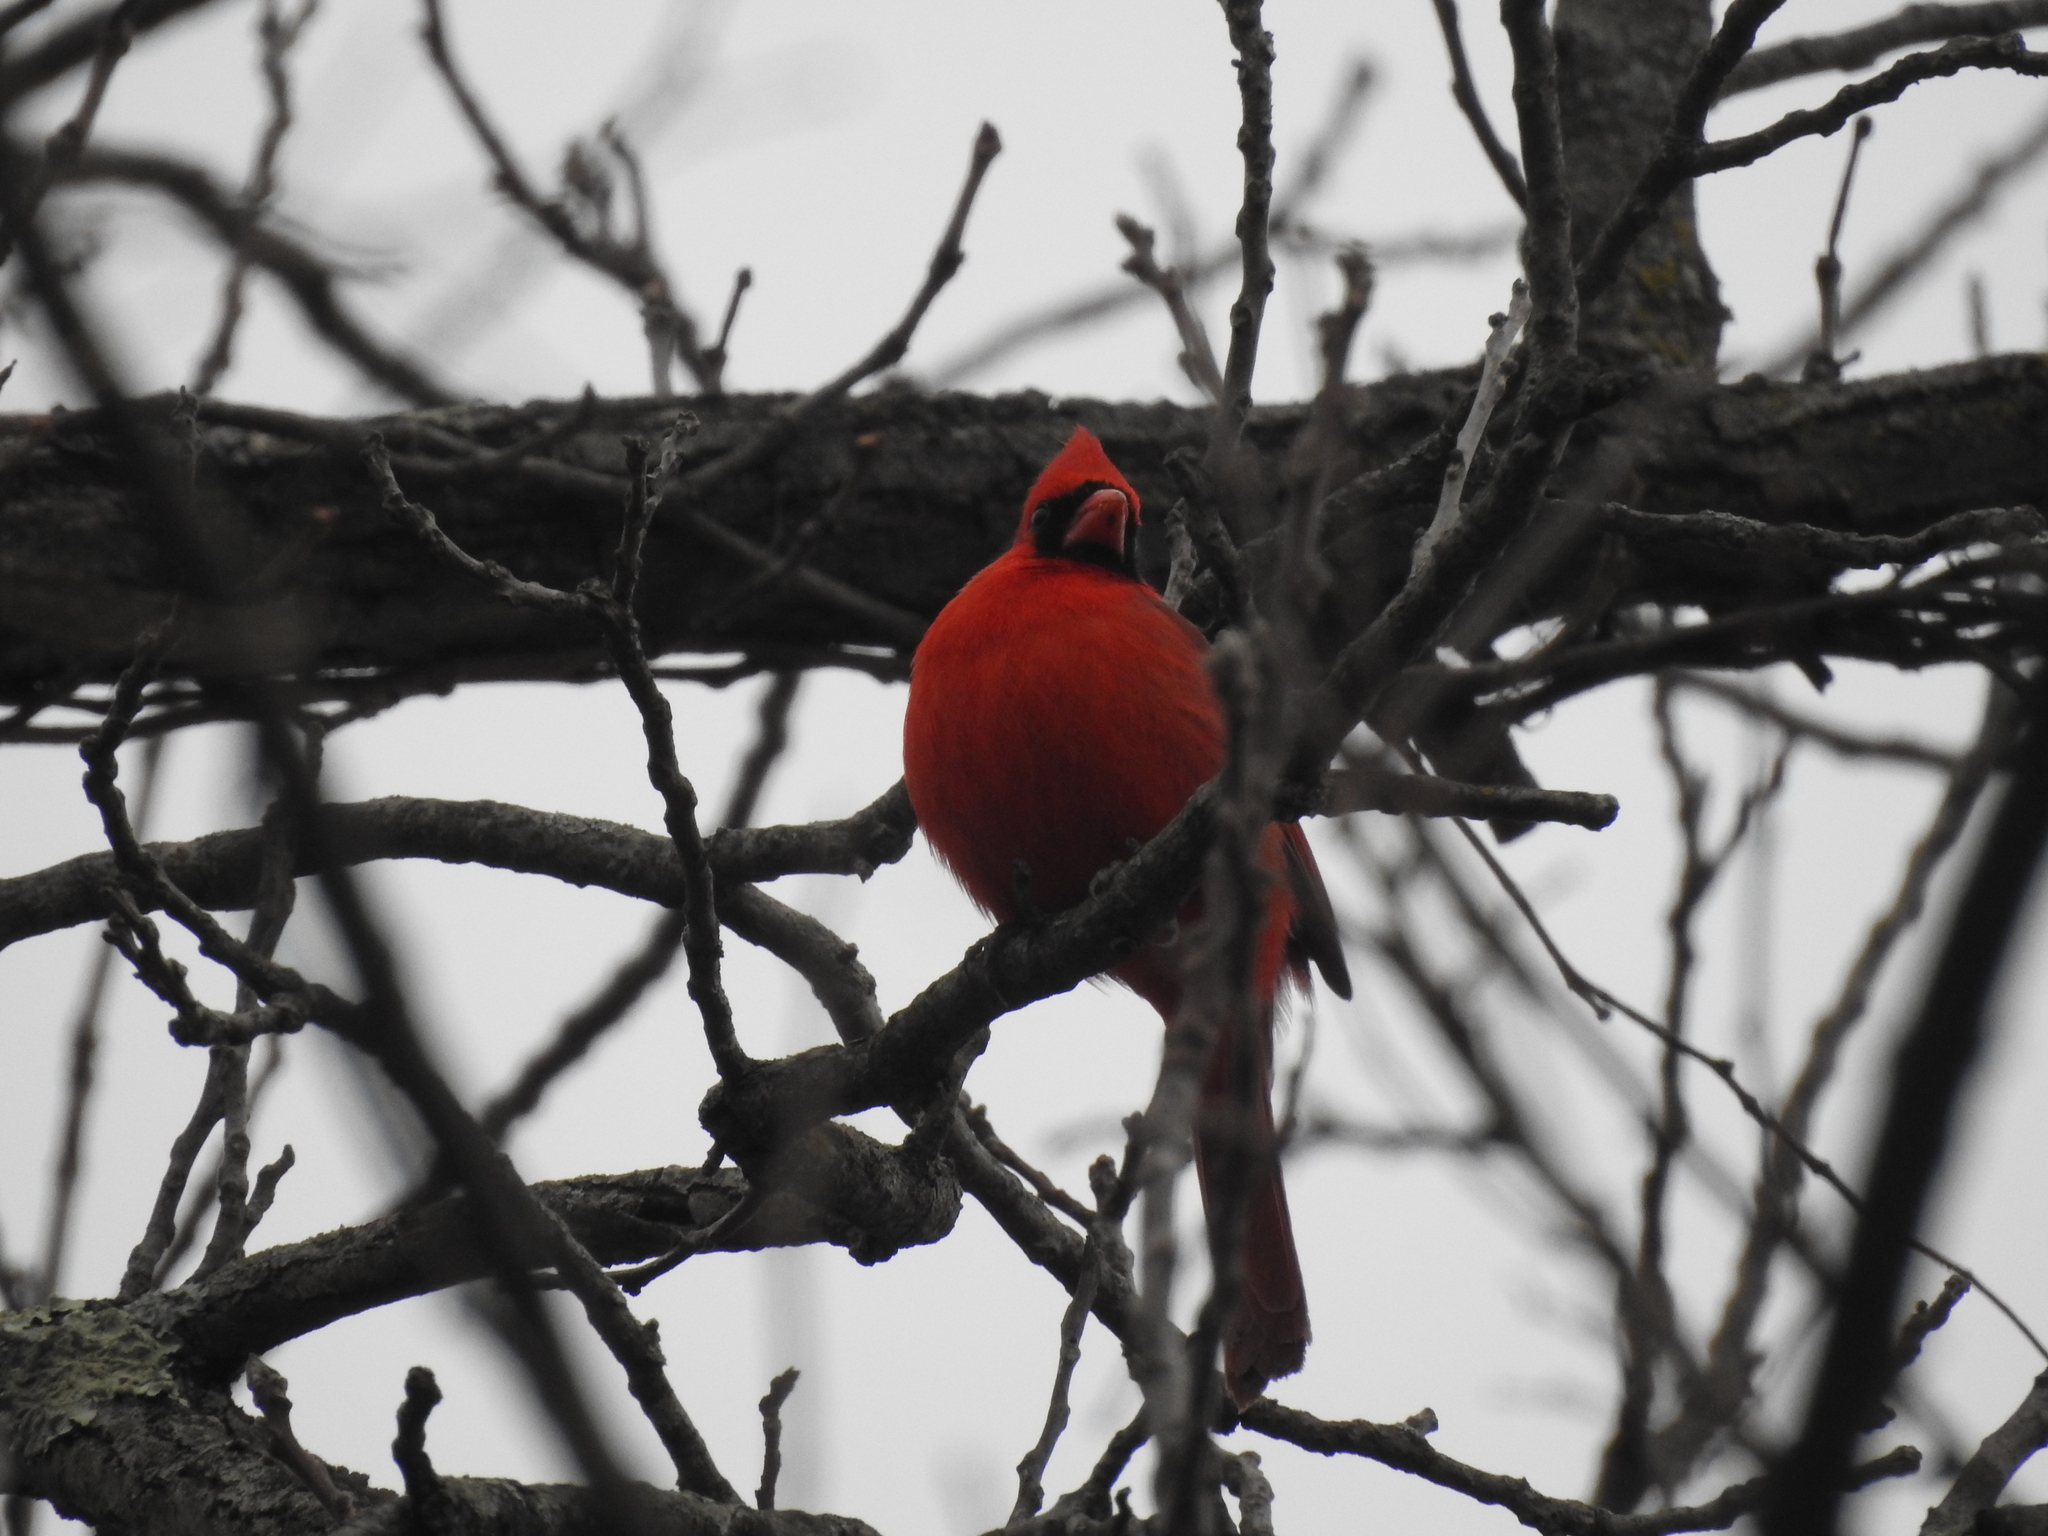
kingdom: Animalia
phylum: Chordata
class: Aves
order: Passeriformes
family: Cardinalidae
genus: Cardinalis
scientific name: Cardinalis cardinalis
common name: Northern cardinal
